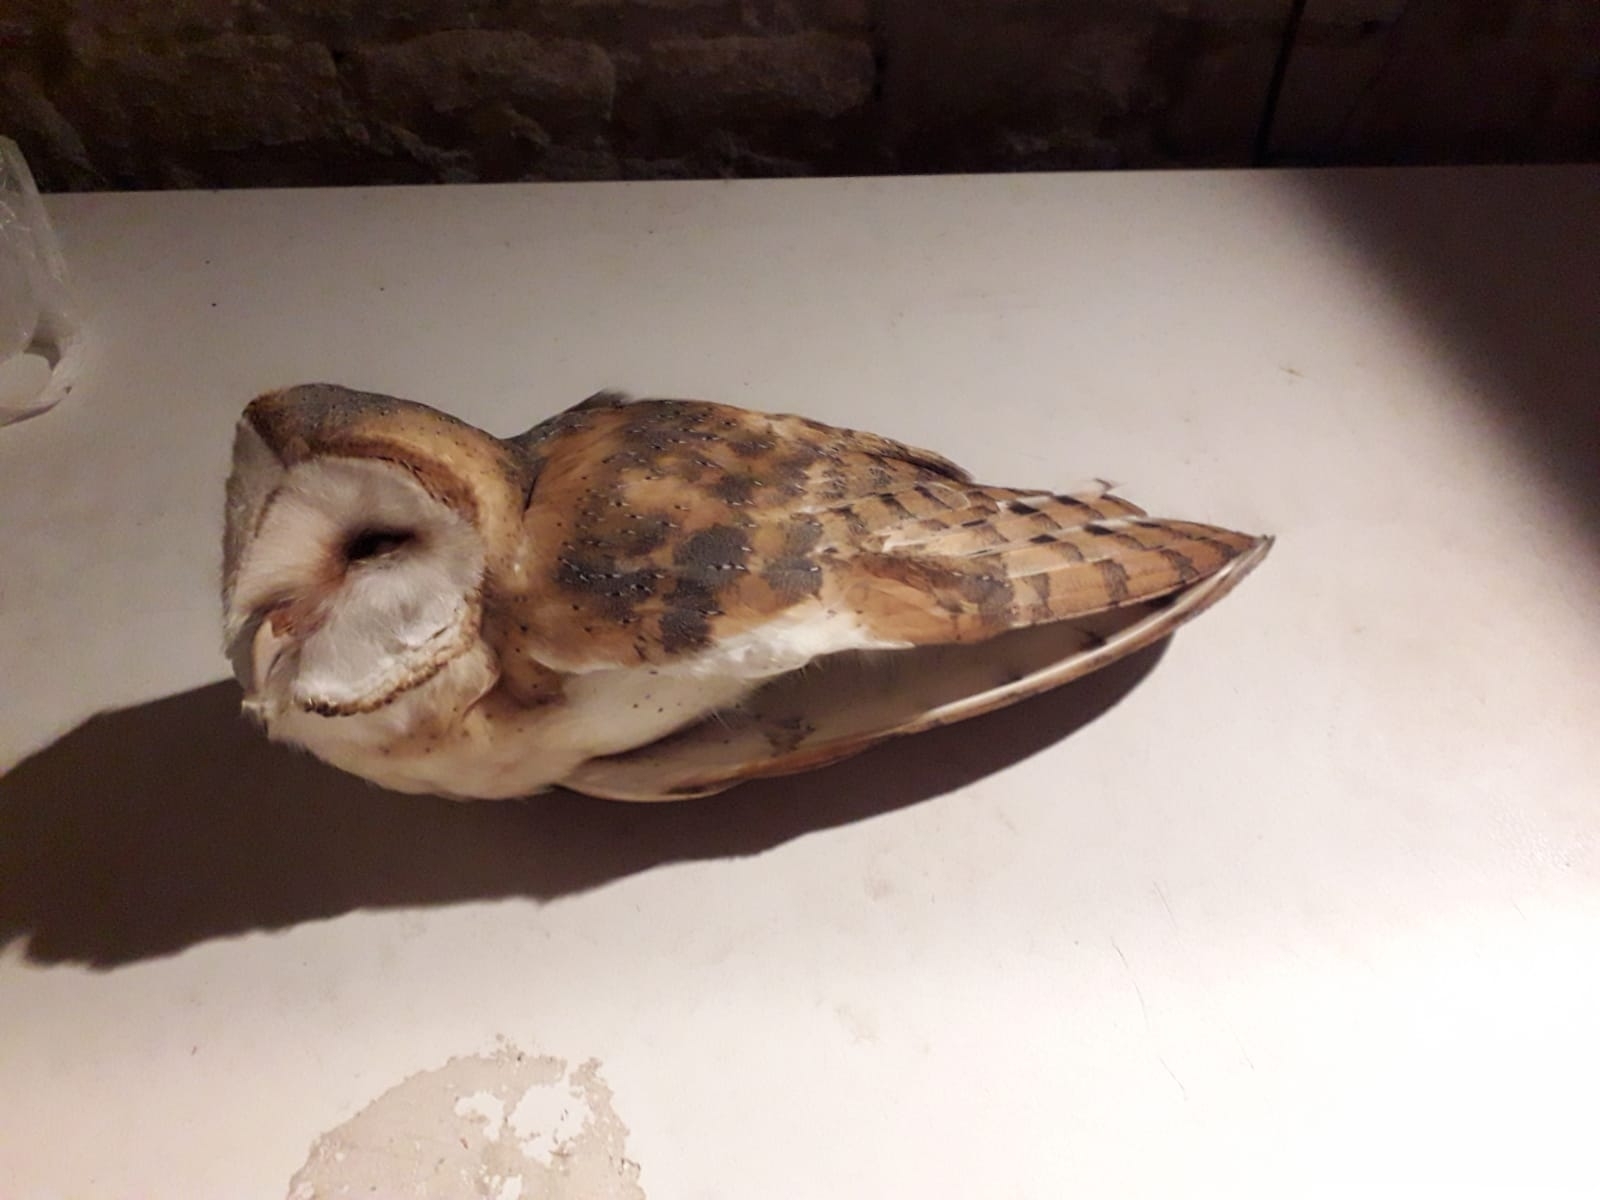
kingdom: Animalia
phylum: Chordata
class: Aves
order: Strigiformes
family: Tytonidae
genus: Tyto
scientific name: Tyto alba
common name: Barn owl
